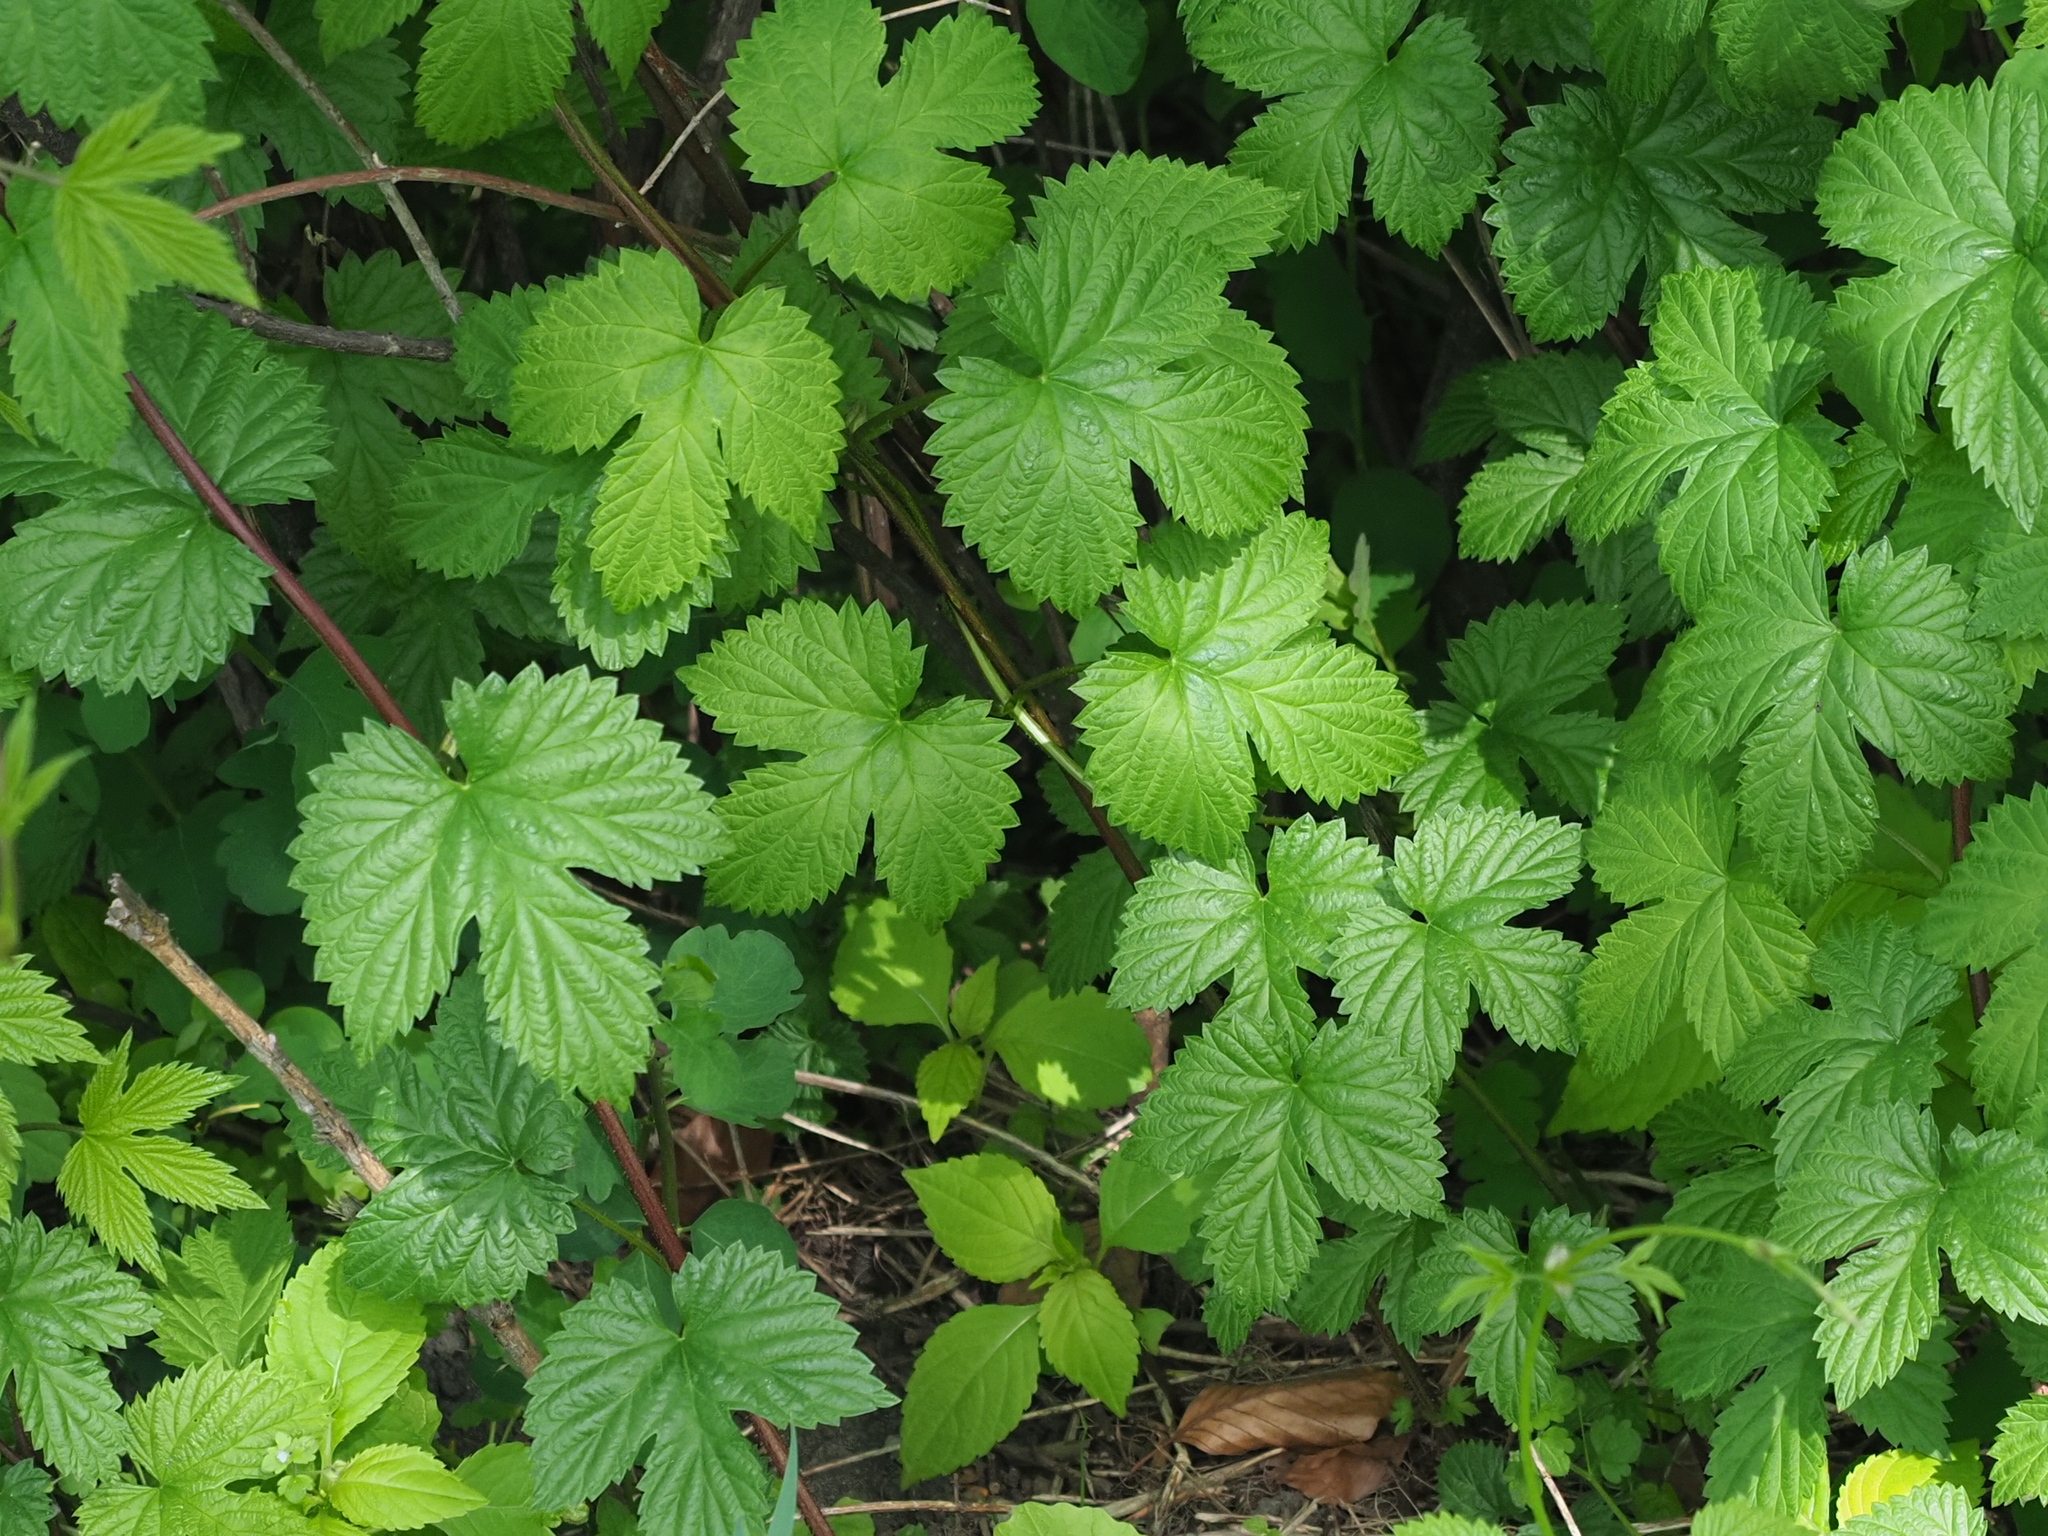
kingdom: Plantae
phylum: Tracheophyta
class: Magnoliopsida
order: Rosales
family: Cannabaceae
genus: Humulus
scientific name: Humulus lupulus
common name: Hop
